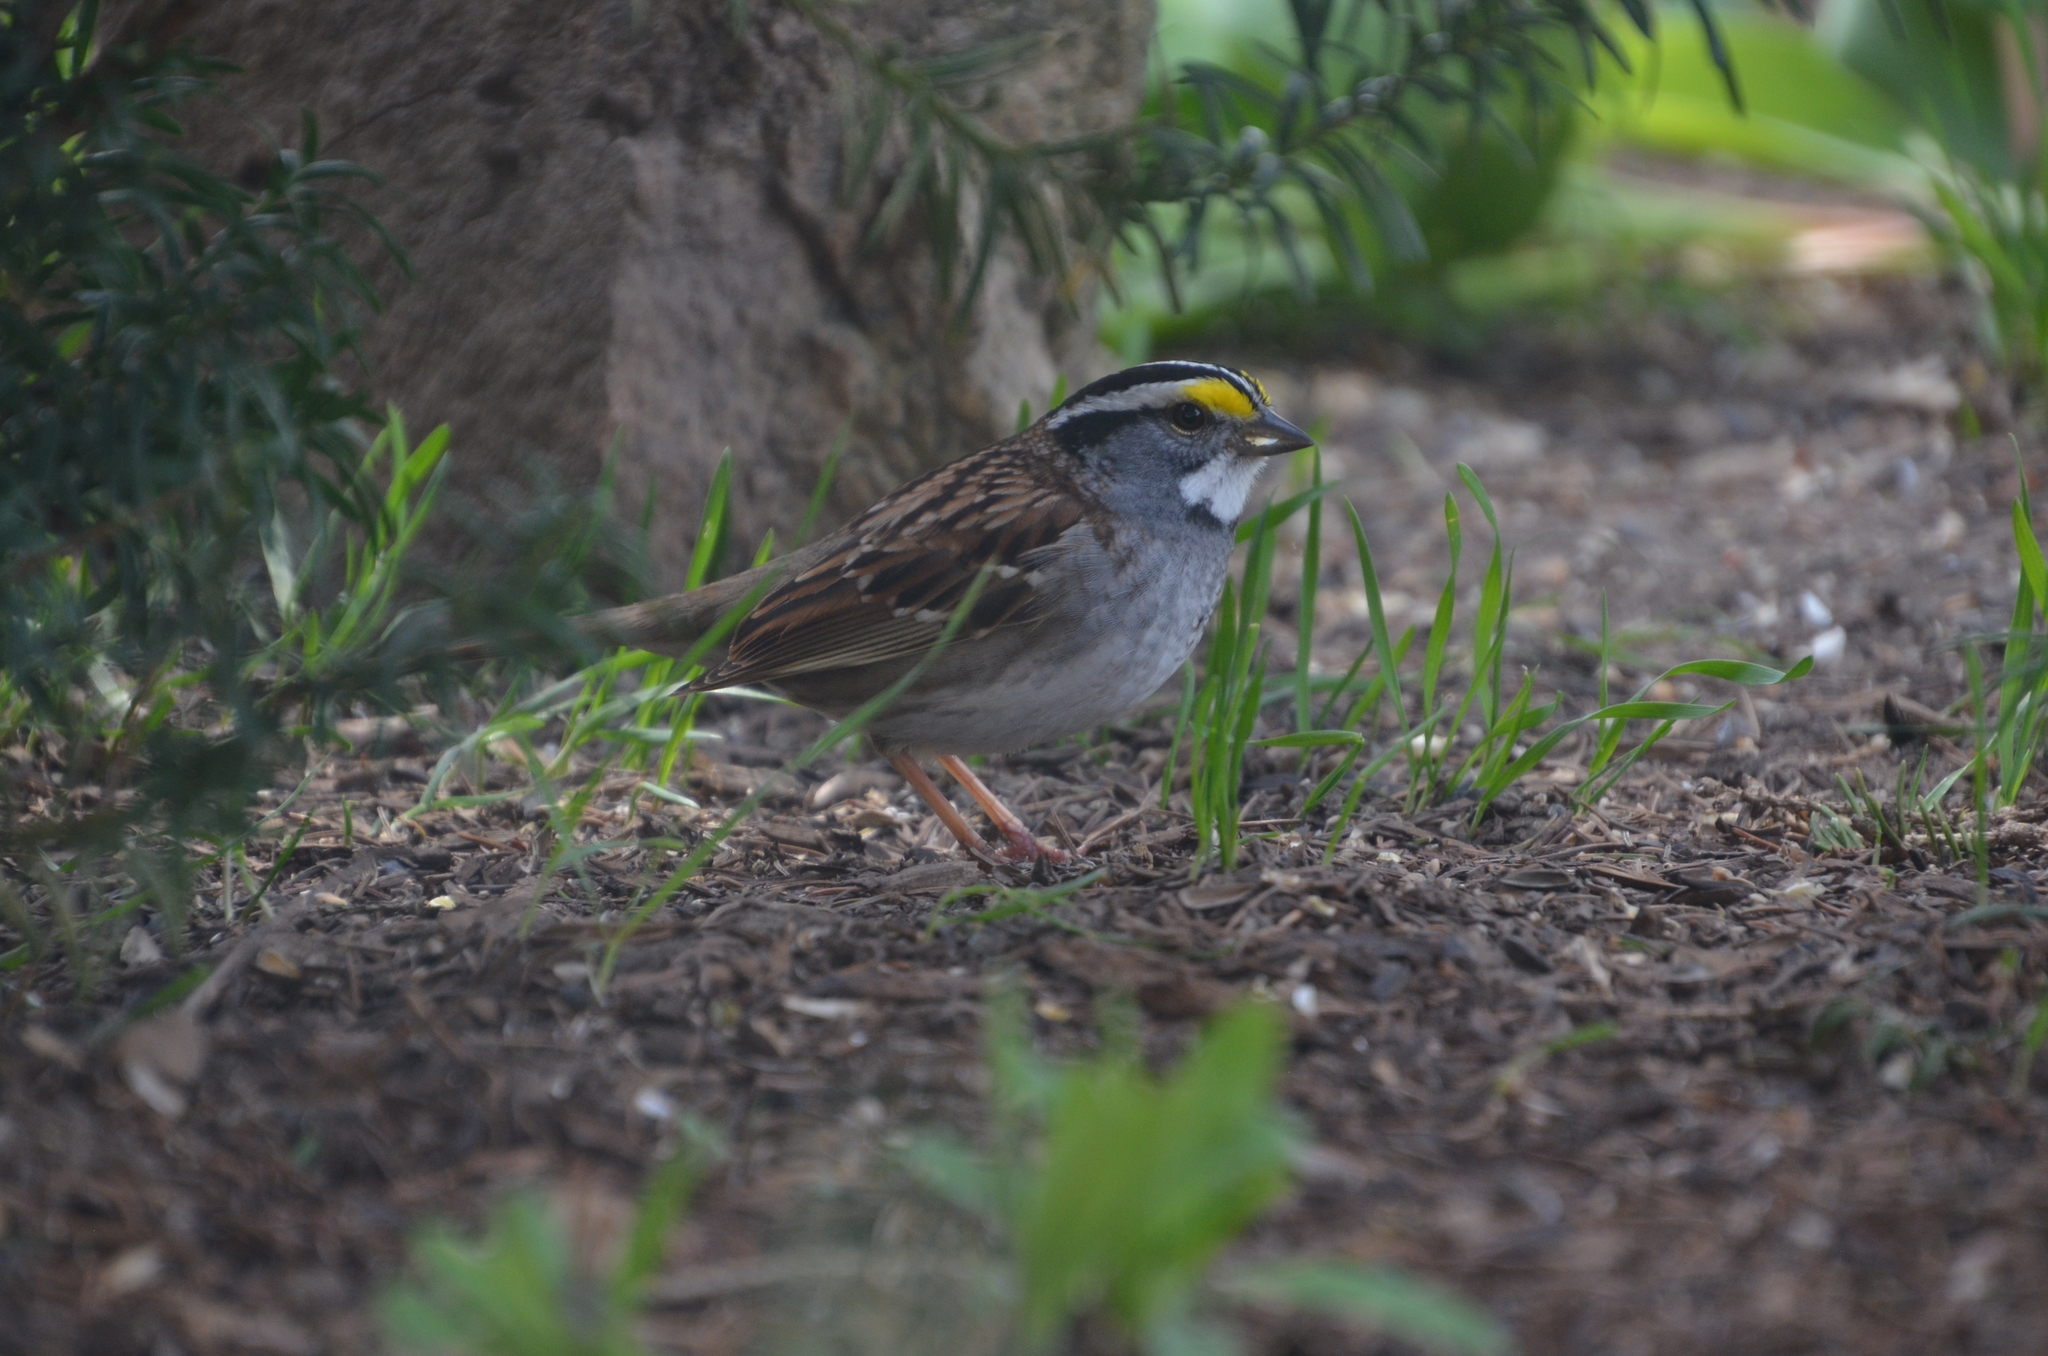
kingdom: Animalia
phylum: Chordata
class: Aves
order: Passeriformes
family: Passerellidae
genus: Zonotrichia
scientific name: Zonotrichia albicollis
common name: White-throated sparrow
